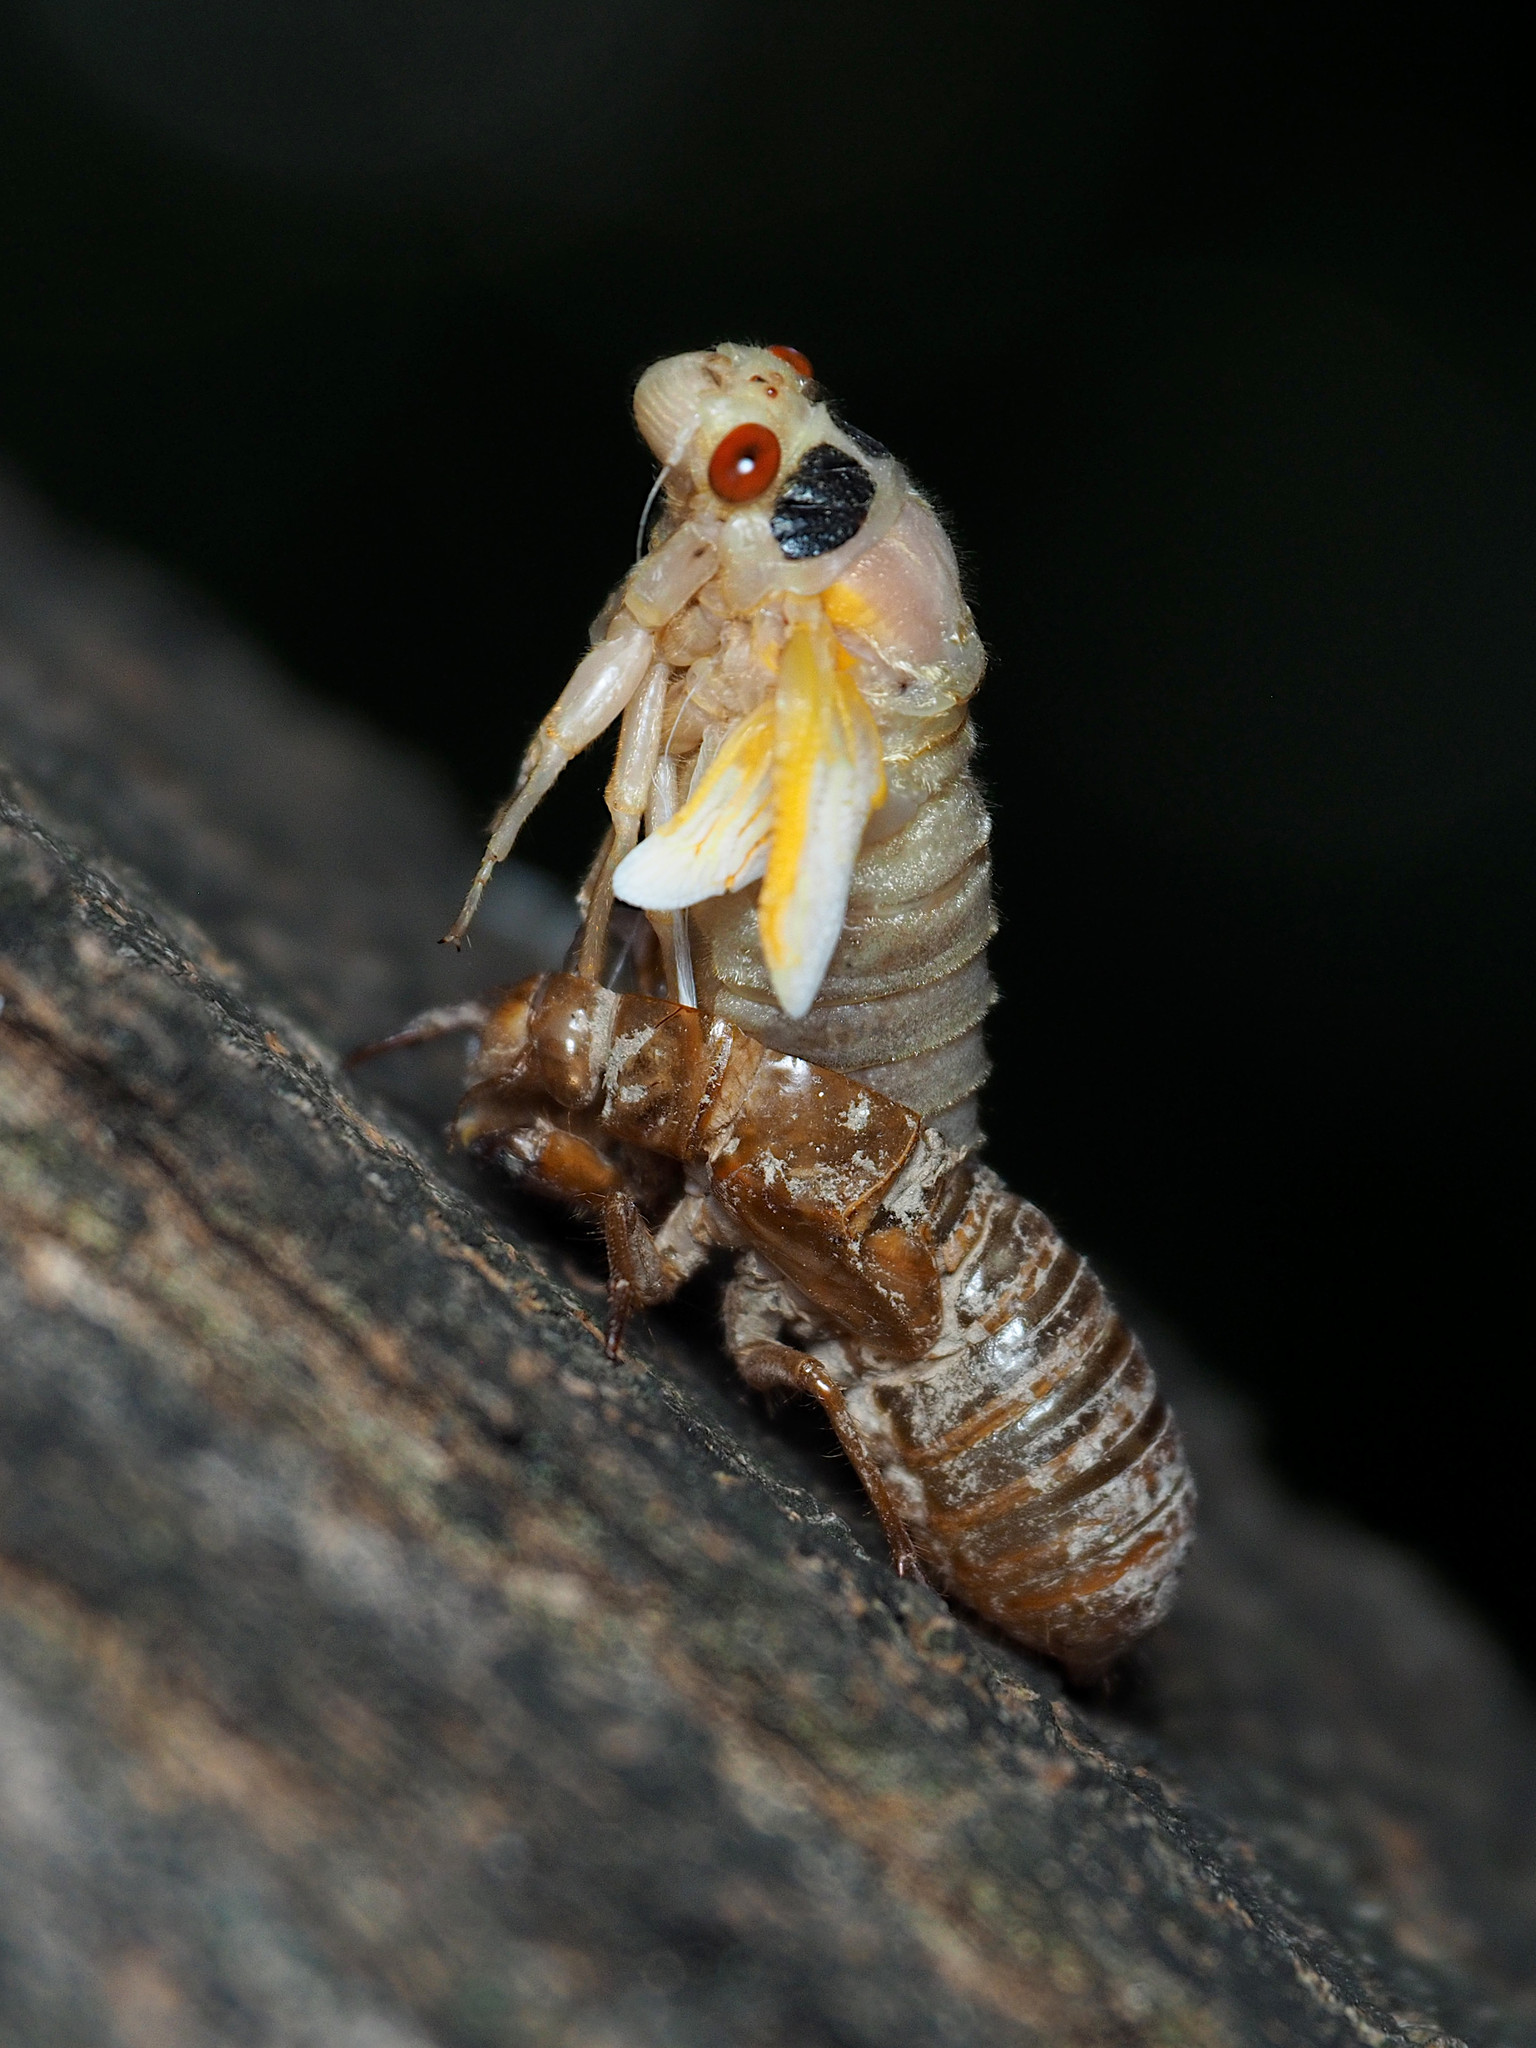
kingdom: Animalia
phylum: Arthropoda
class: Insecta
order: Hemiptera
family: Cicadidae
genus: Magicicada
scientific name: Magicicada
